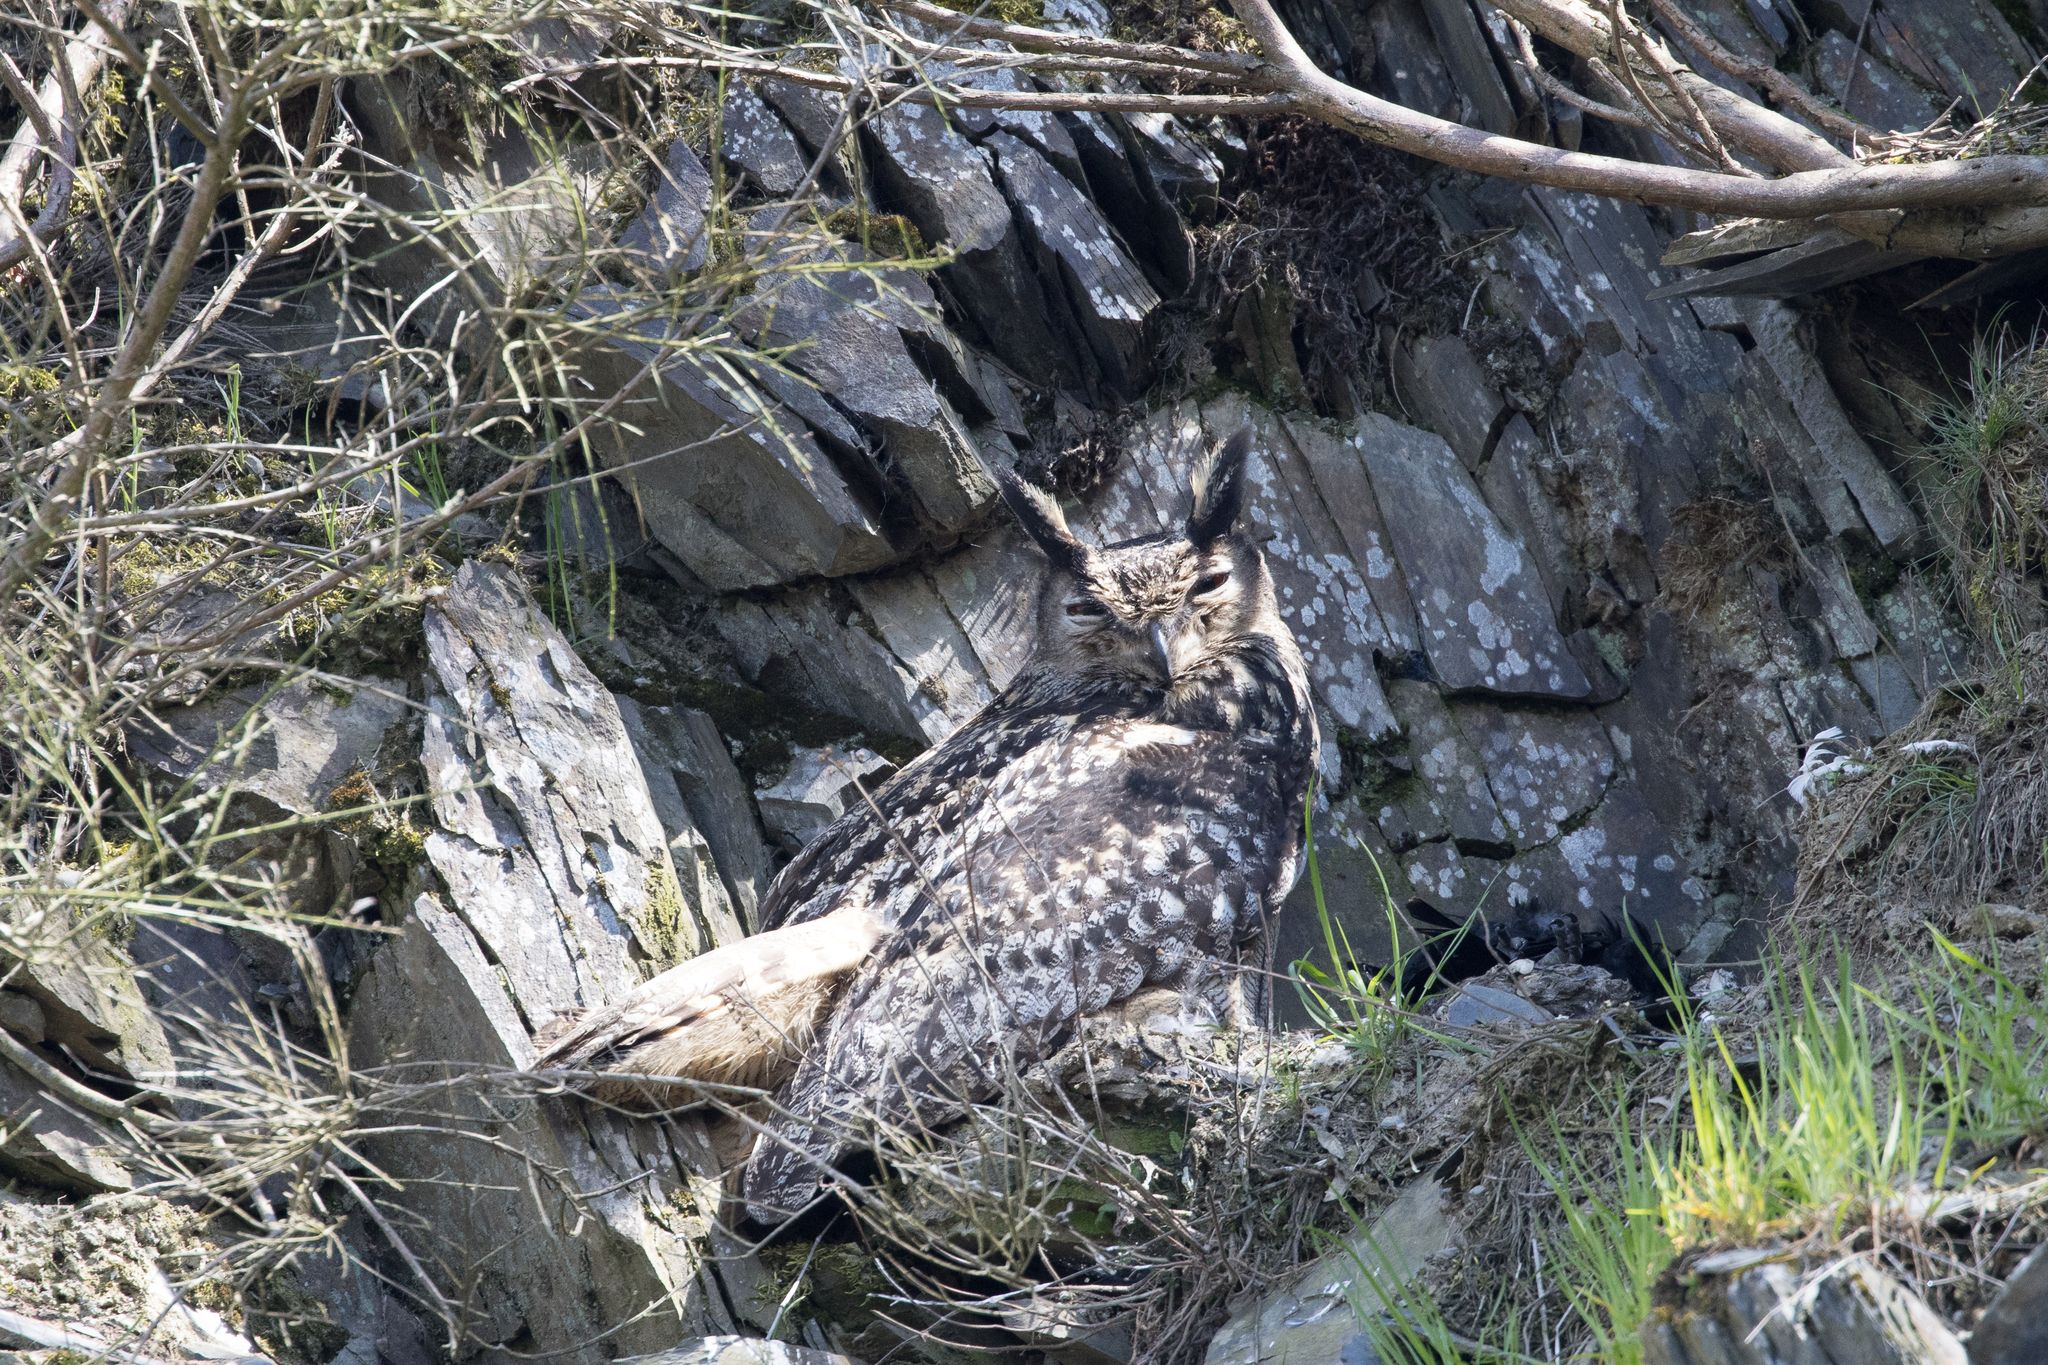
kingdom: Animalia
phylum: Chordata
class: Aves
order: Strigiformes
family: Strigidae
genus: Bubo
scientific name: Bubo bubo
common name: Eurasian eagle-owl
